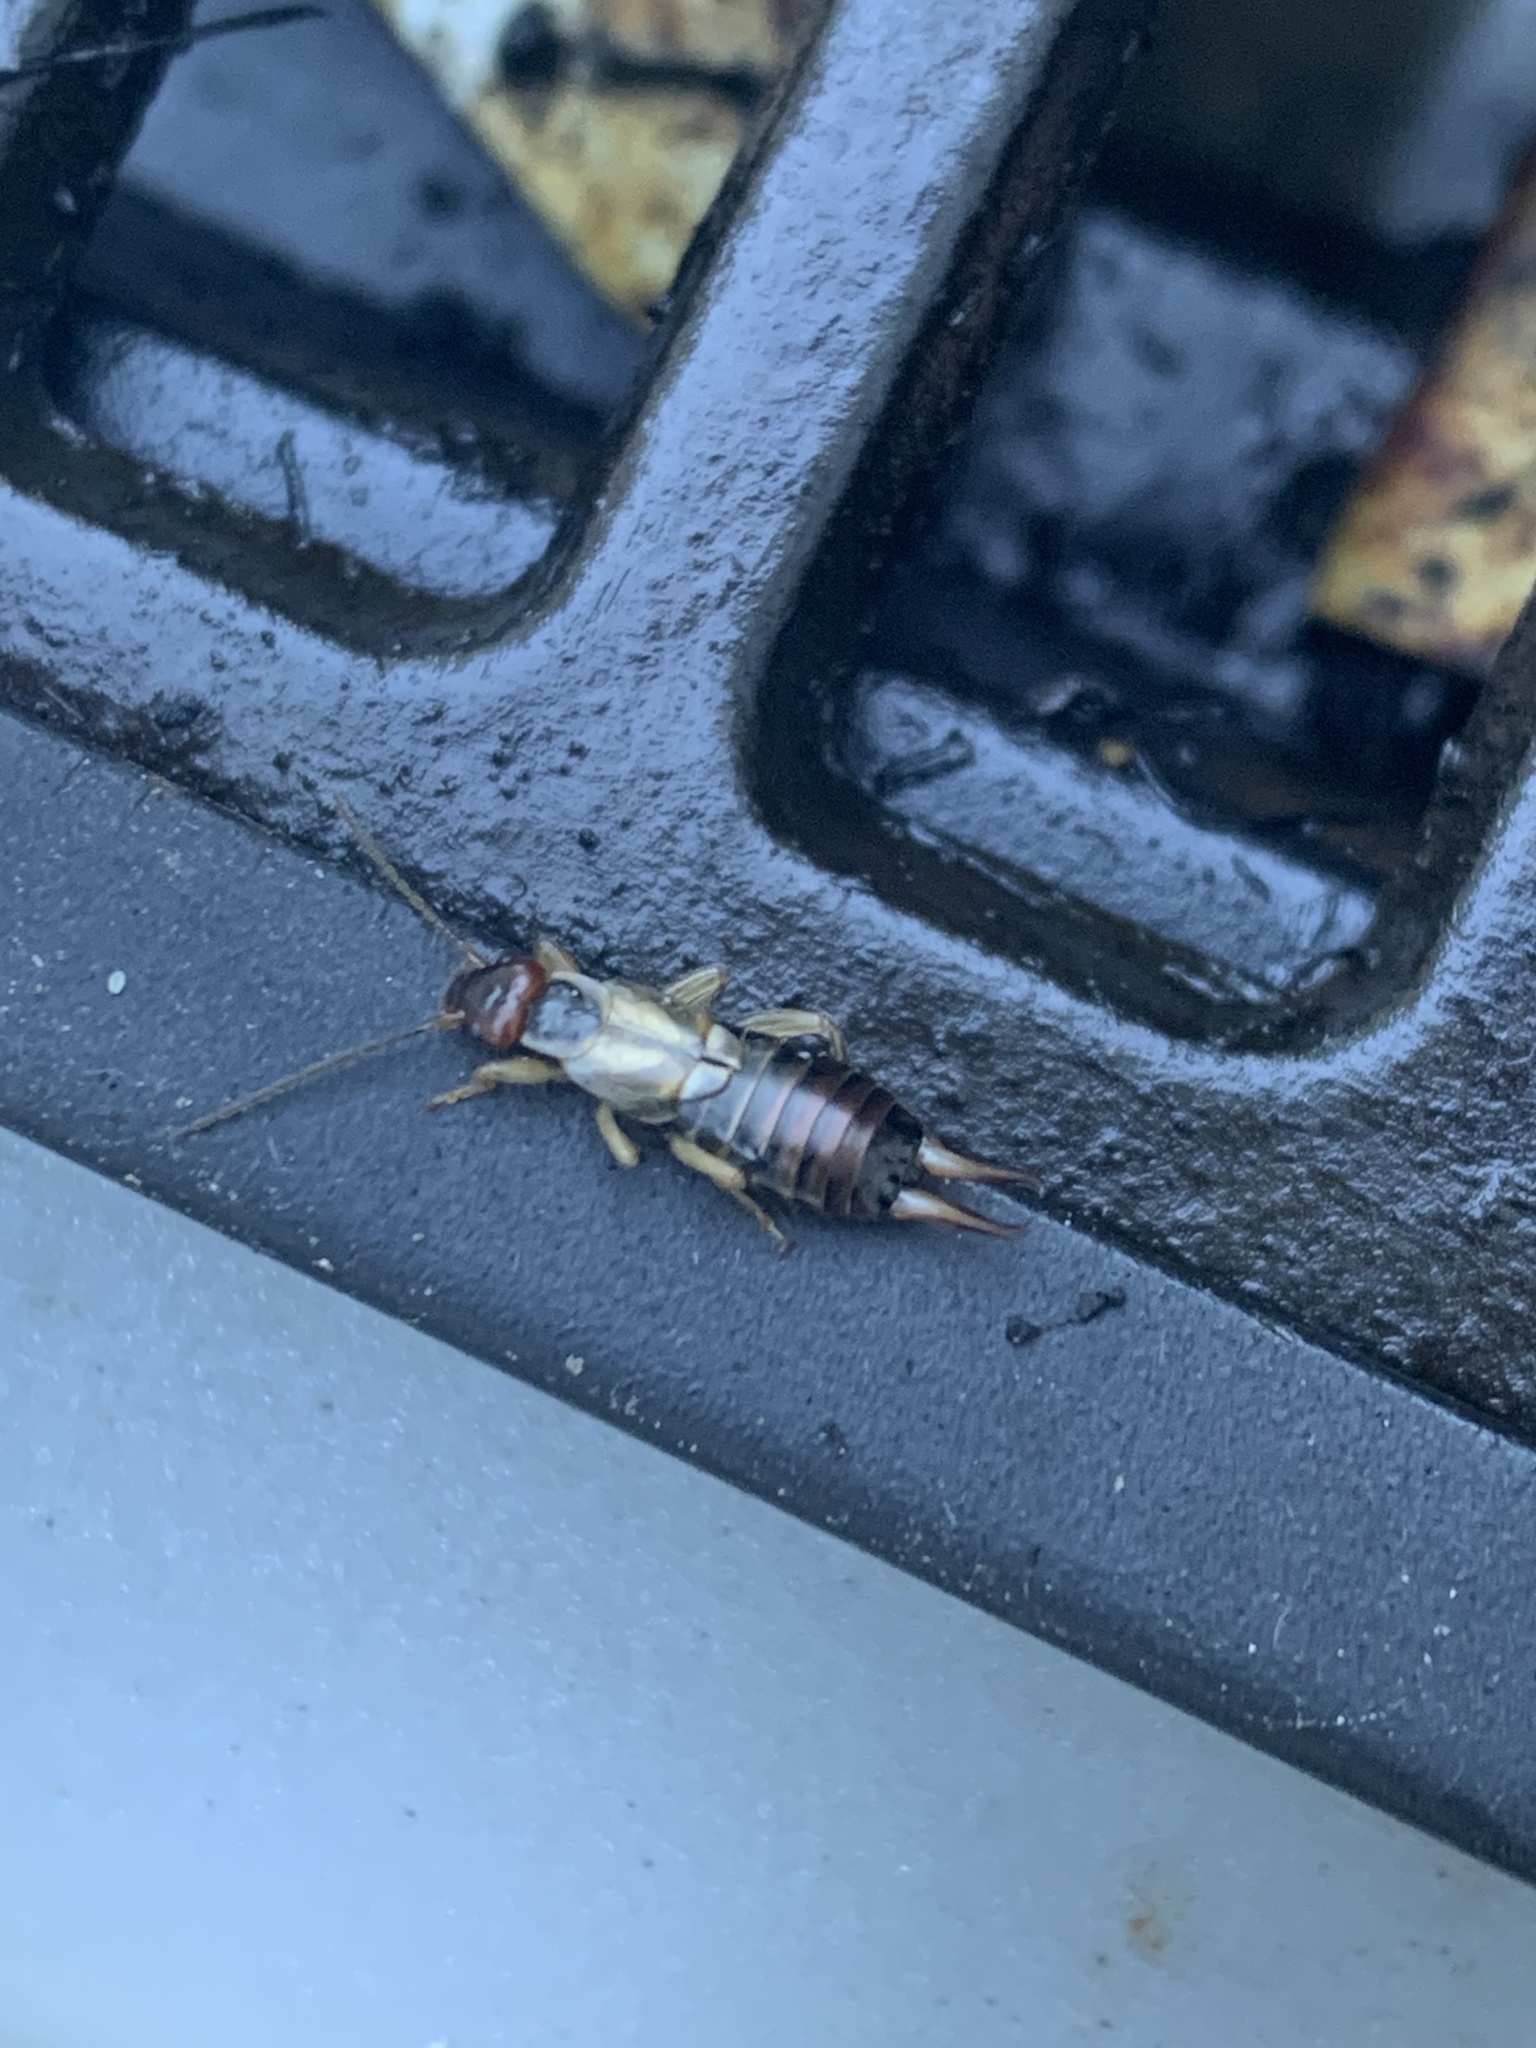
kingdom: Animalia
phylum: Arthropoda
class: Insecta
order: Dermaptera
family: Forficulidae
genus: Forficula
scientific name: Forficula
